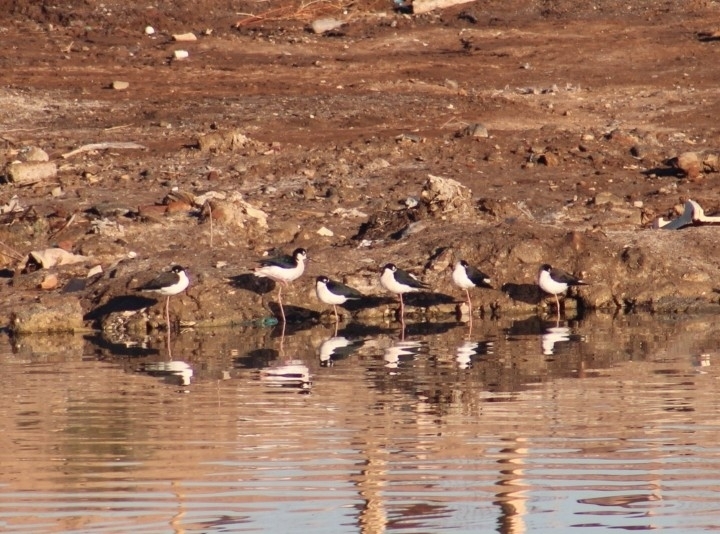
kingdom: Animalia
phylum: Chordata
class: Aves
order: Charadriiformes
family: Recurvirostridae
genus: Himantopus
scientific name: Himantopus mexicanus
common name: Black-necked stilt
